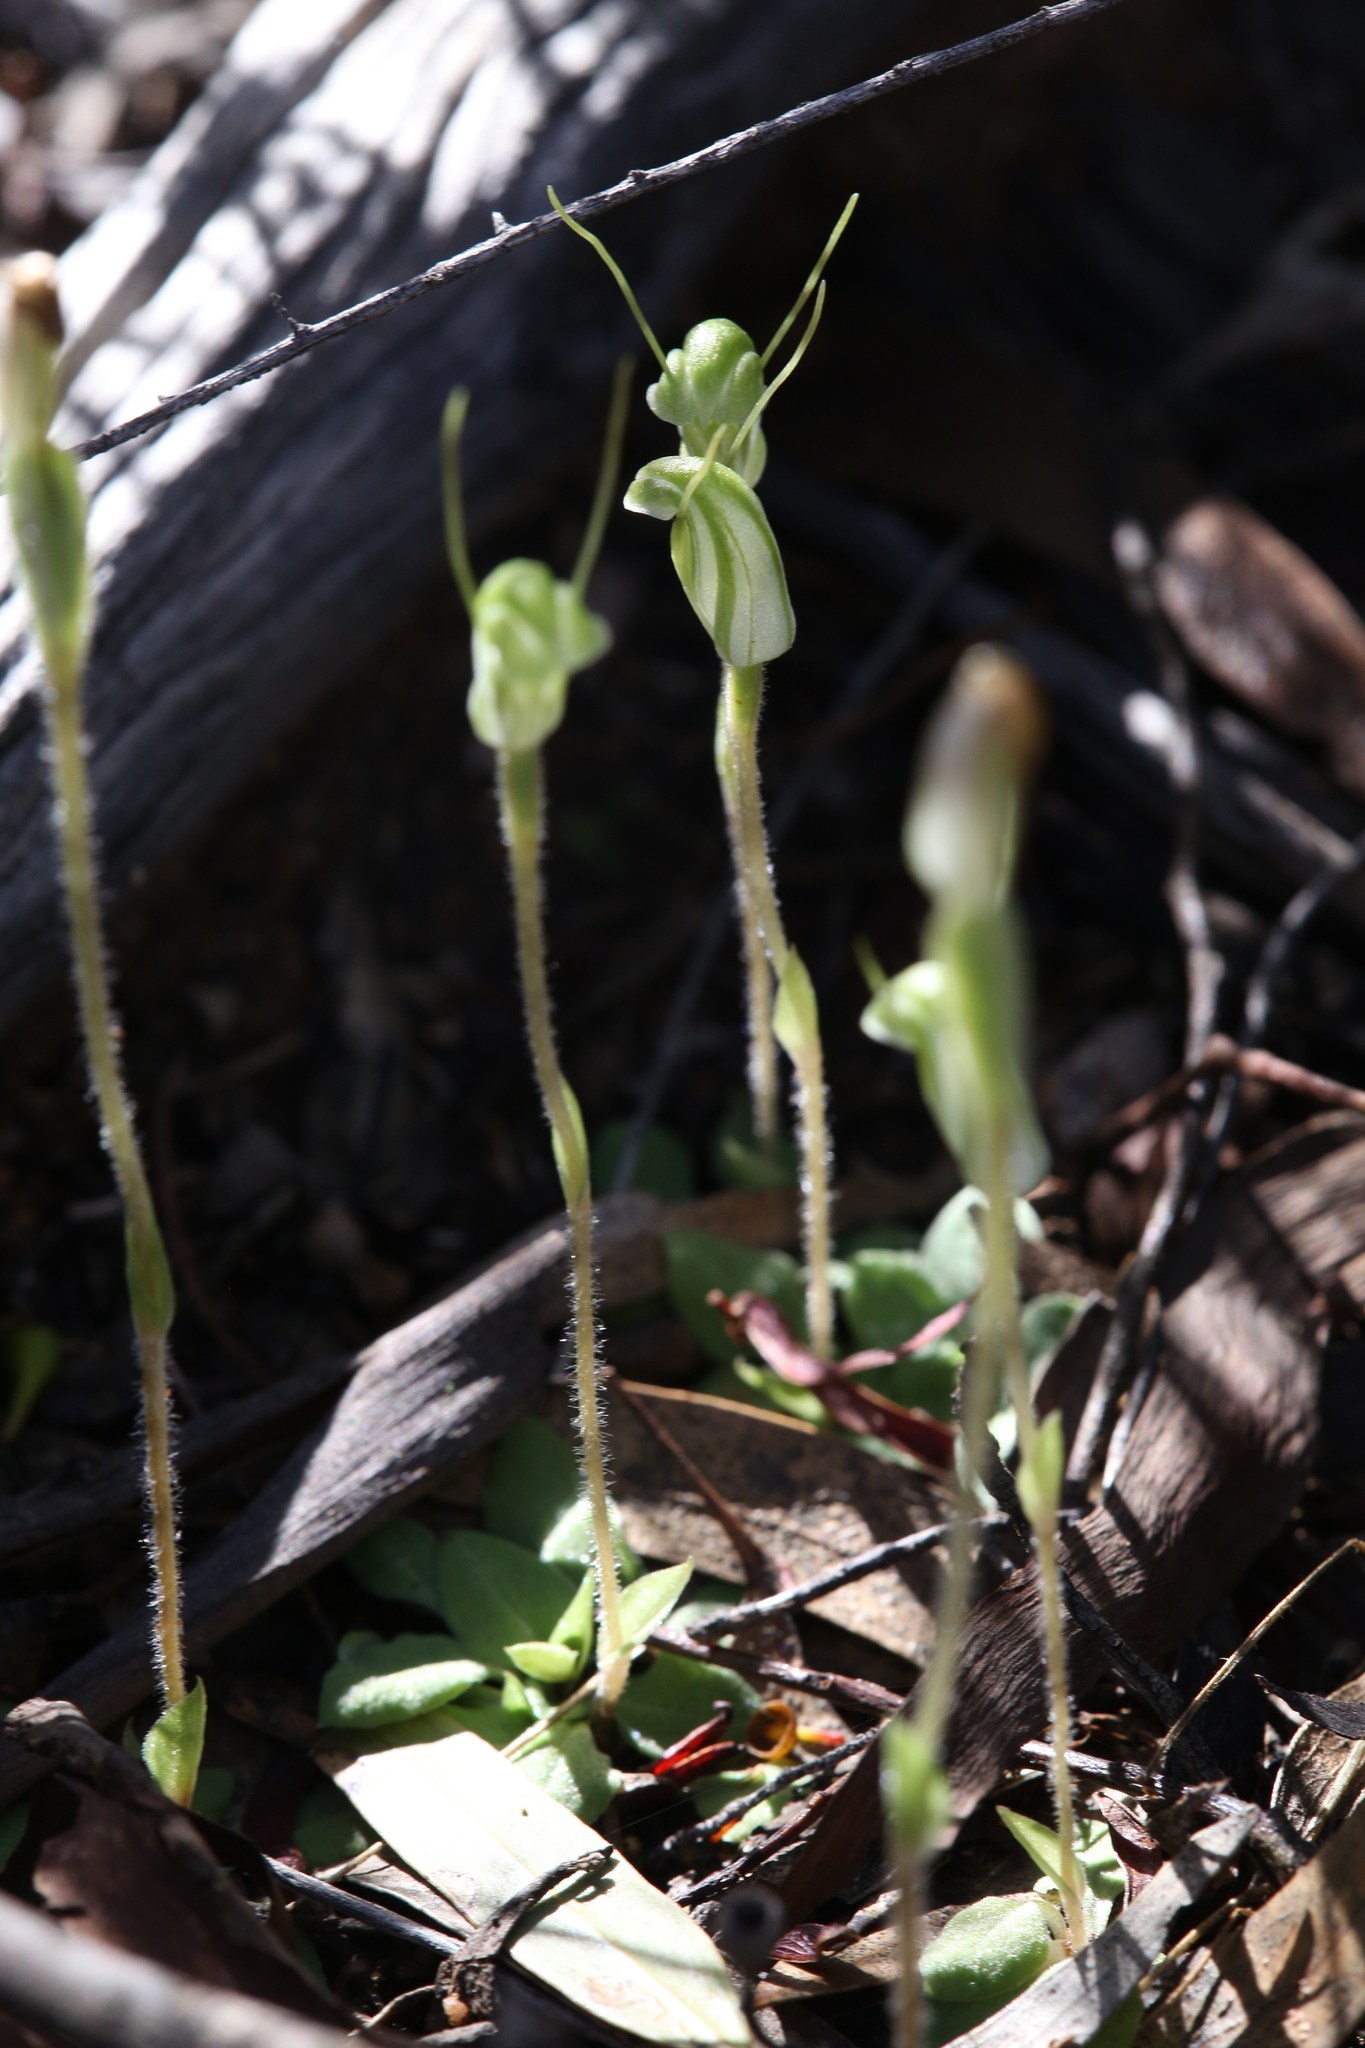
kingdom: Plantae
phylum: Tracheophyta
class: Liliopsida
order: Asparagales
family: Orchidaceae
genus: Pterostylis
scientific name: Pterostylis setulosa
